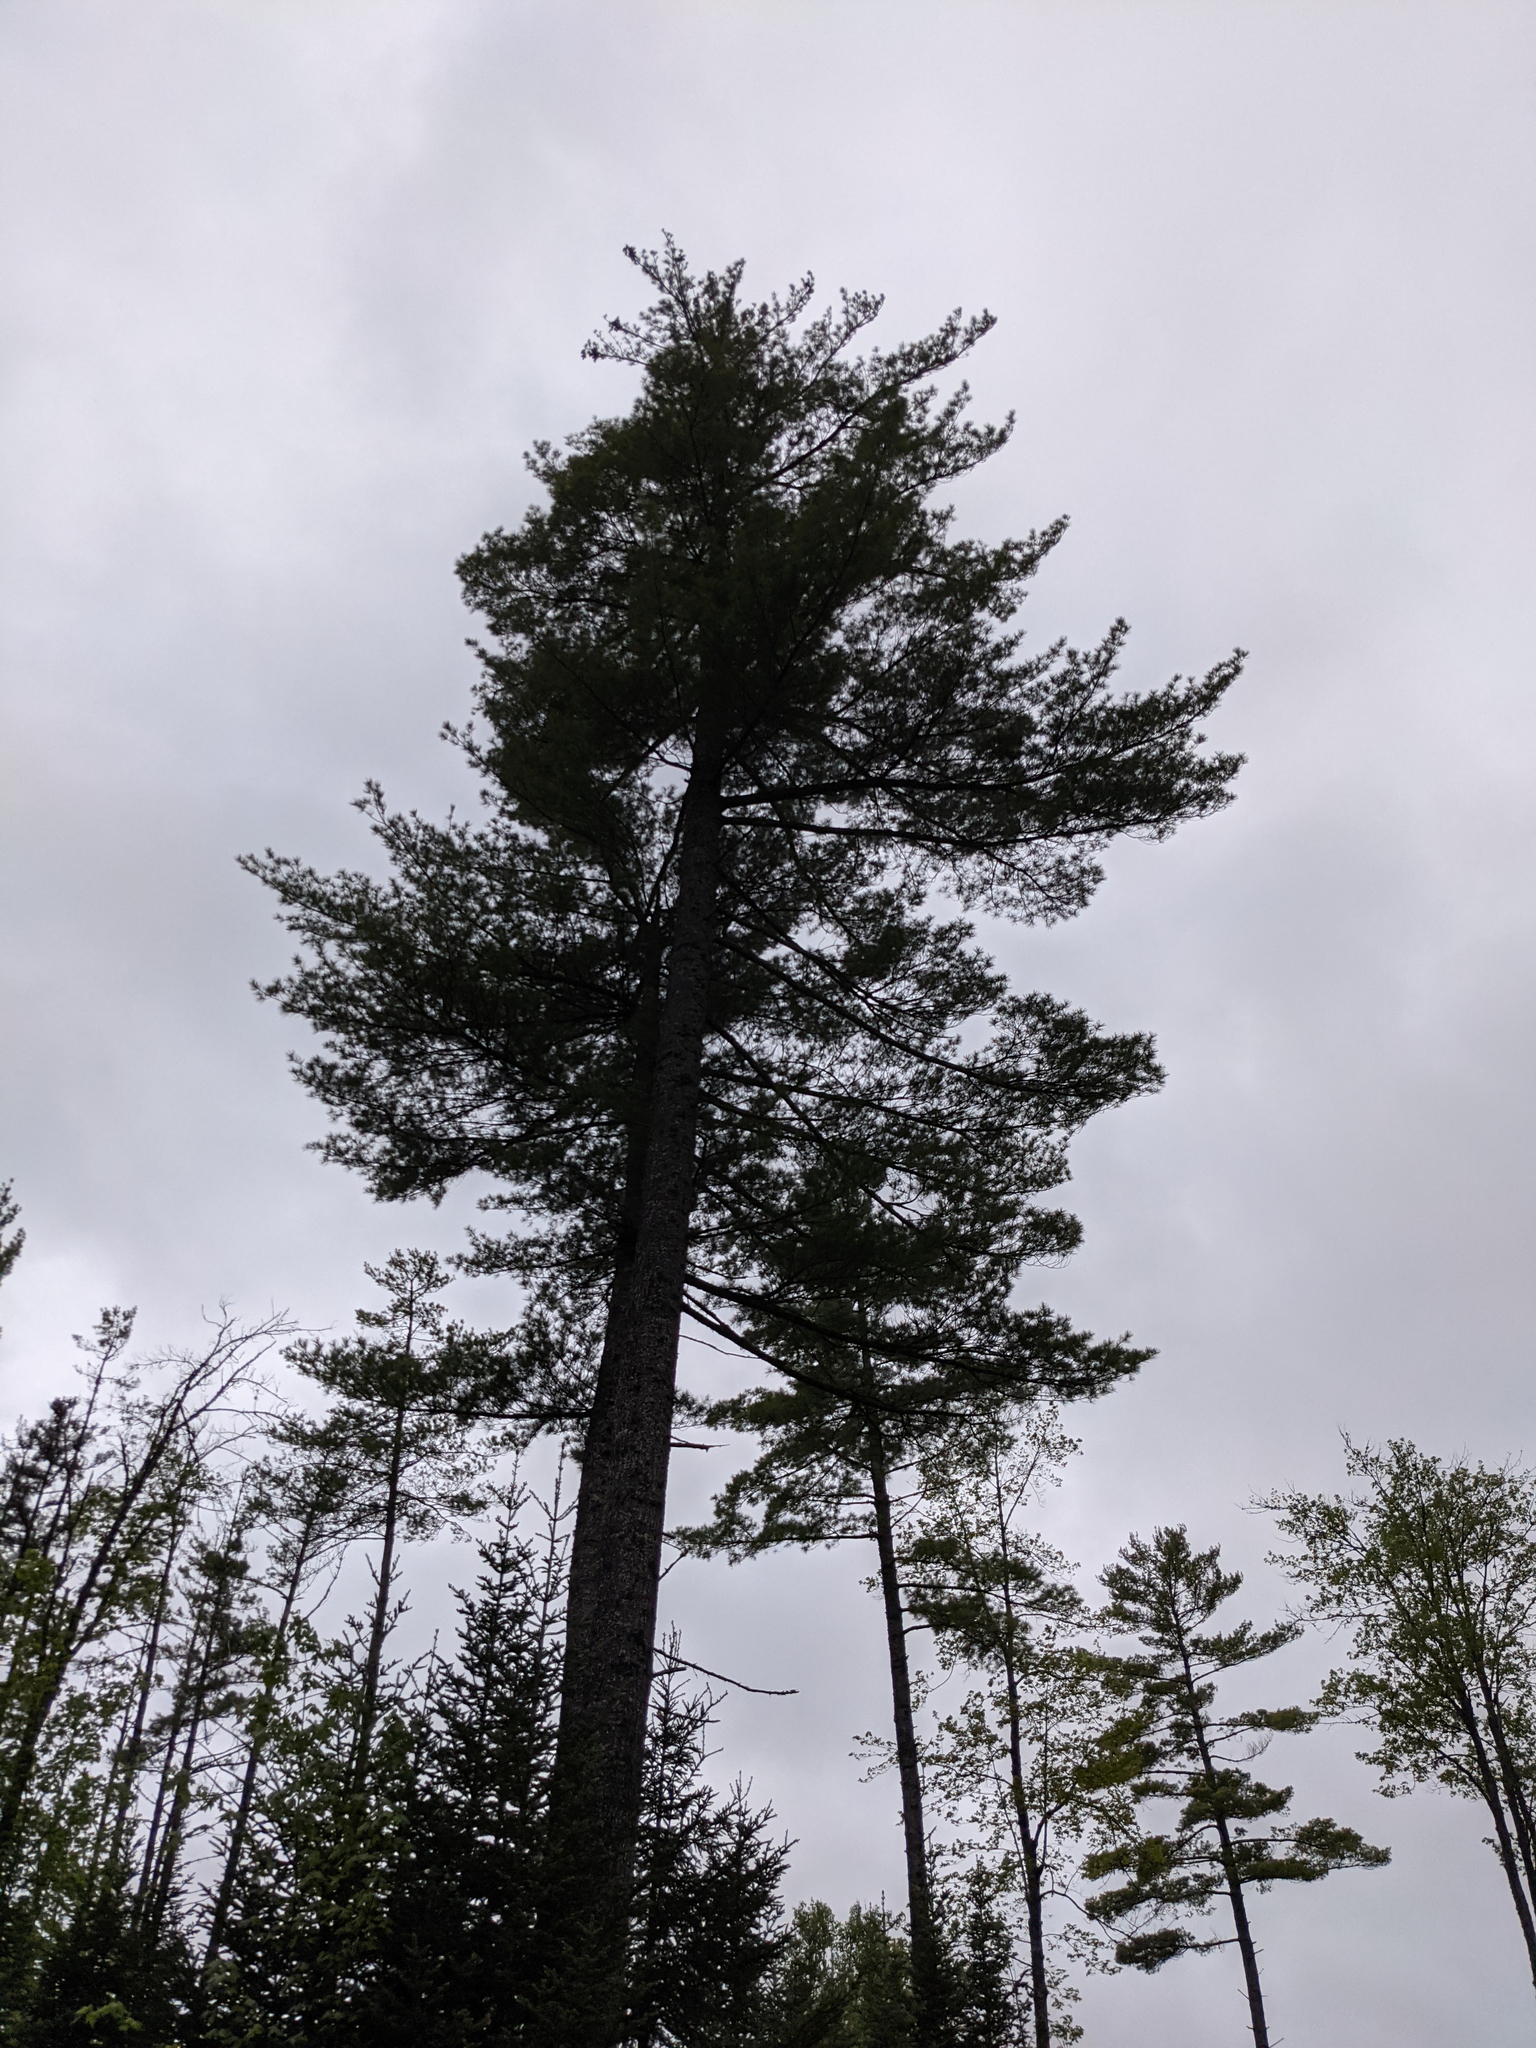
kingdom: Plantae
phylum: Tracheophyta
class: Pinopsida
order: Pinales
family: Pinaceae
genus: Pinus
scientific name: Pinus strobus
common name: Weymouth pine
